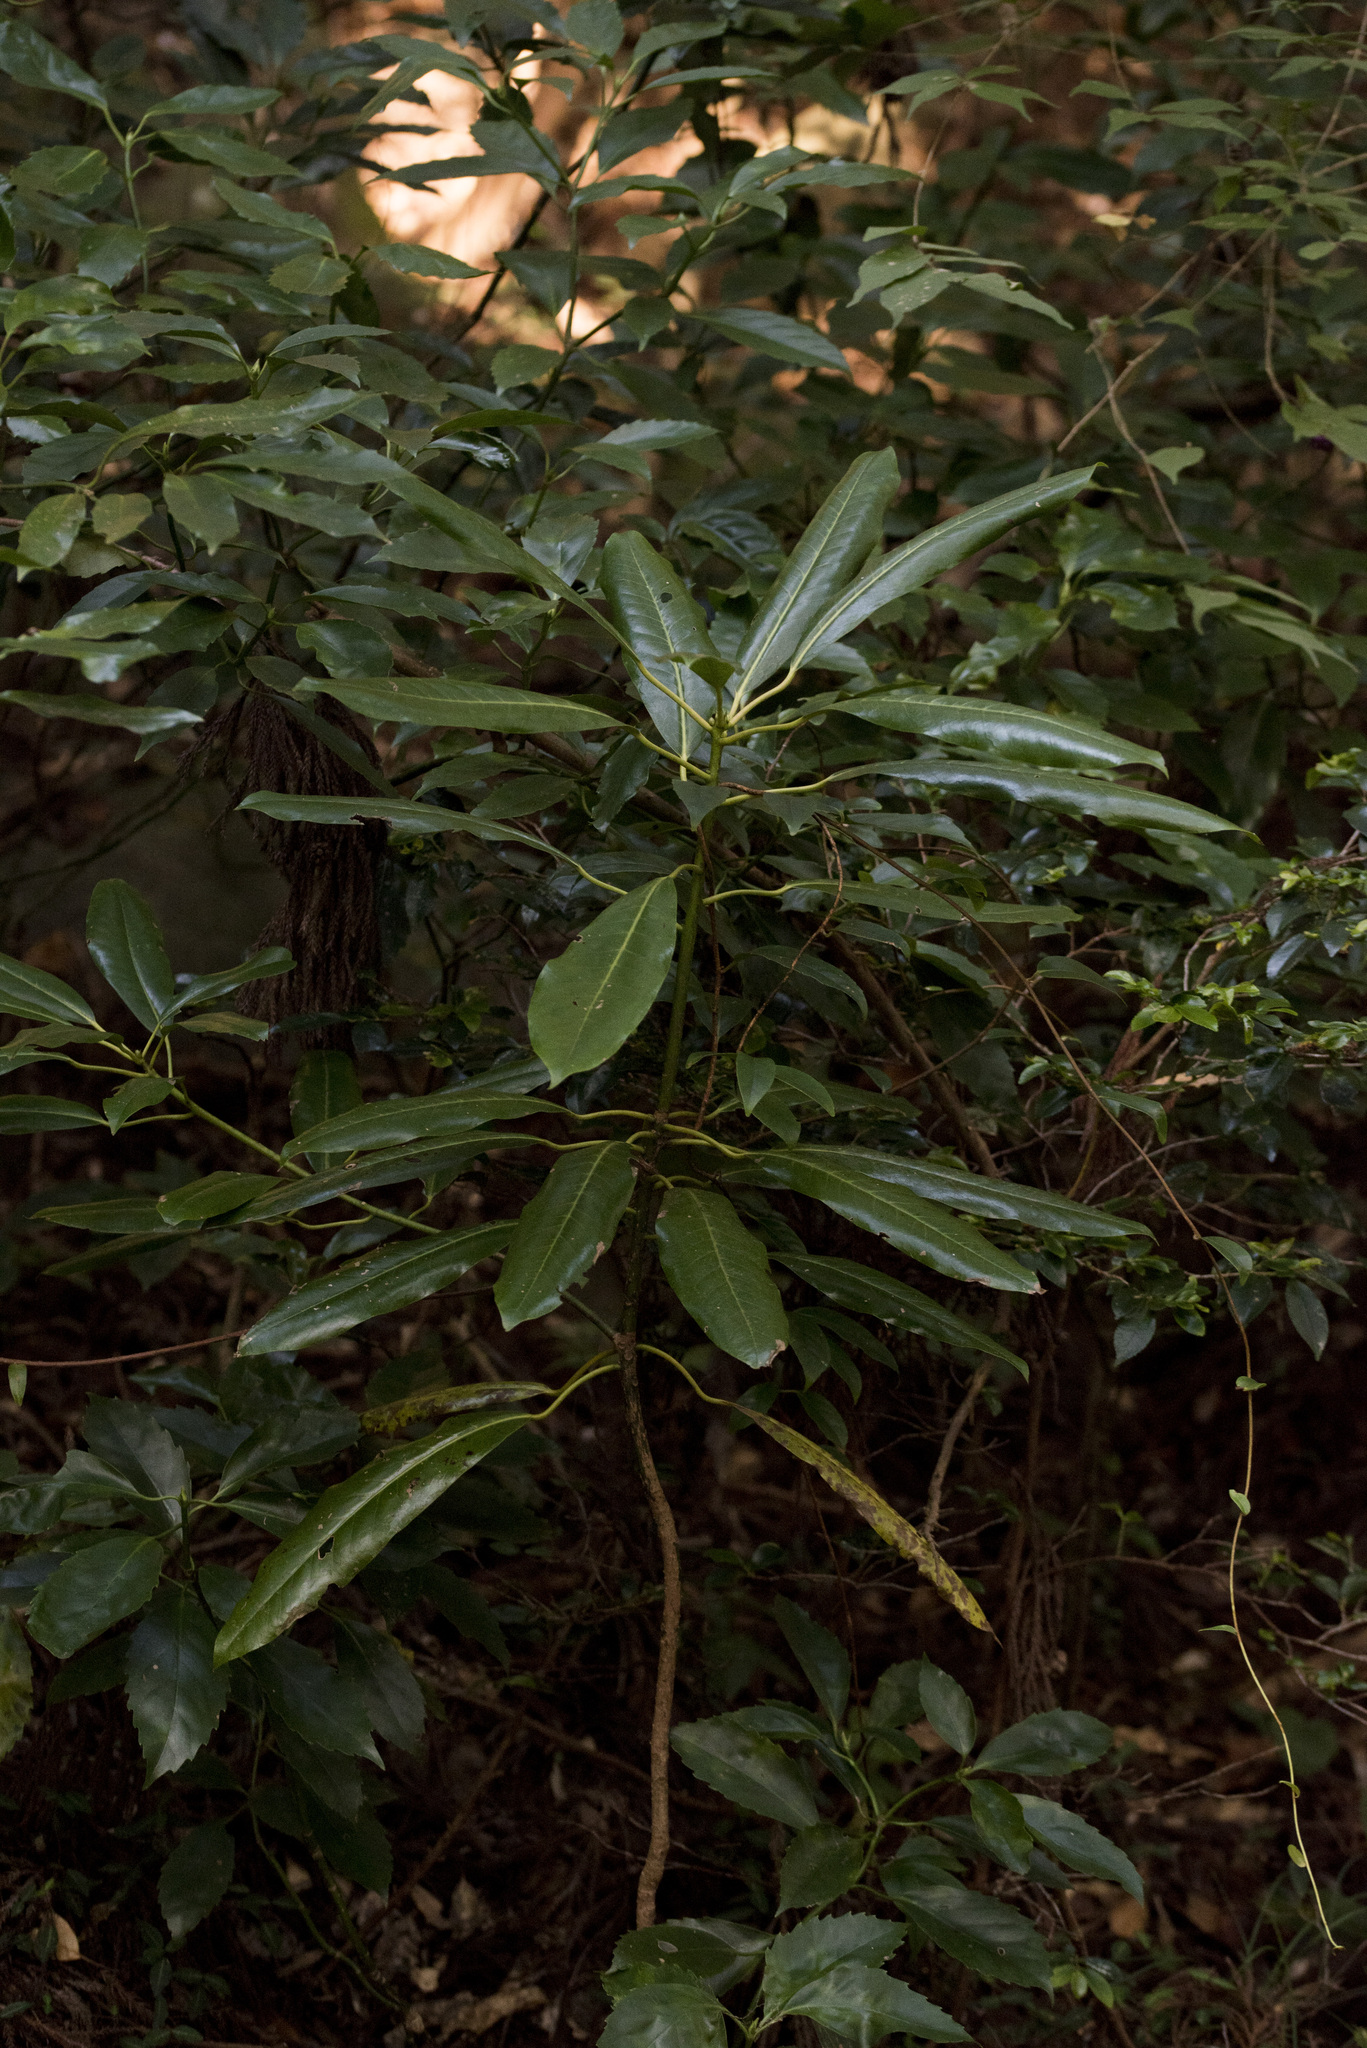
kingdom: Plantae
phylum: Tracheophyta
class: Magnoliopsida
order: Saxifragales
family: Daphniphyllaceae
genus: Daphniphyllum
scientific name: Daphniphyllum macropodum
